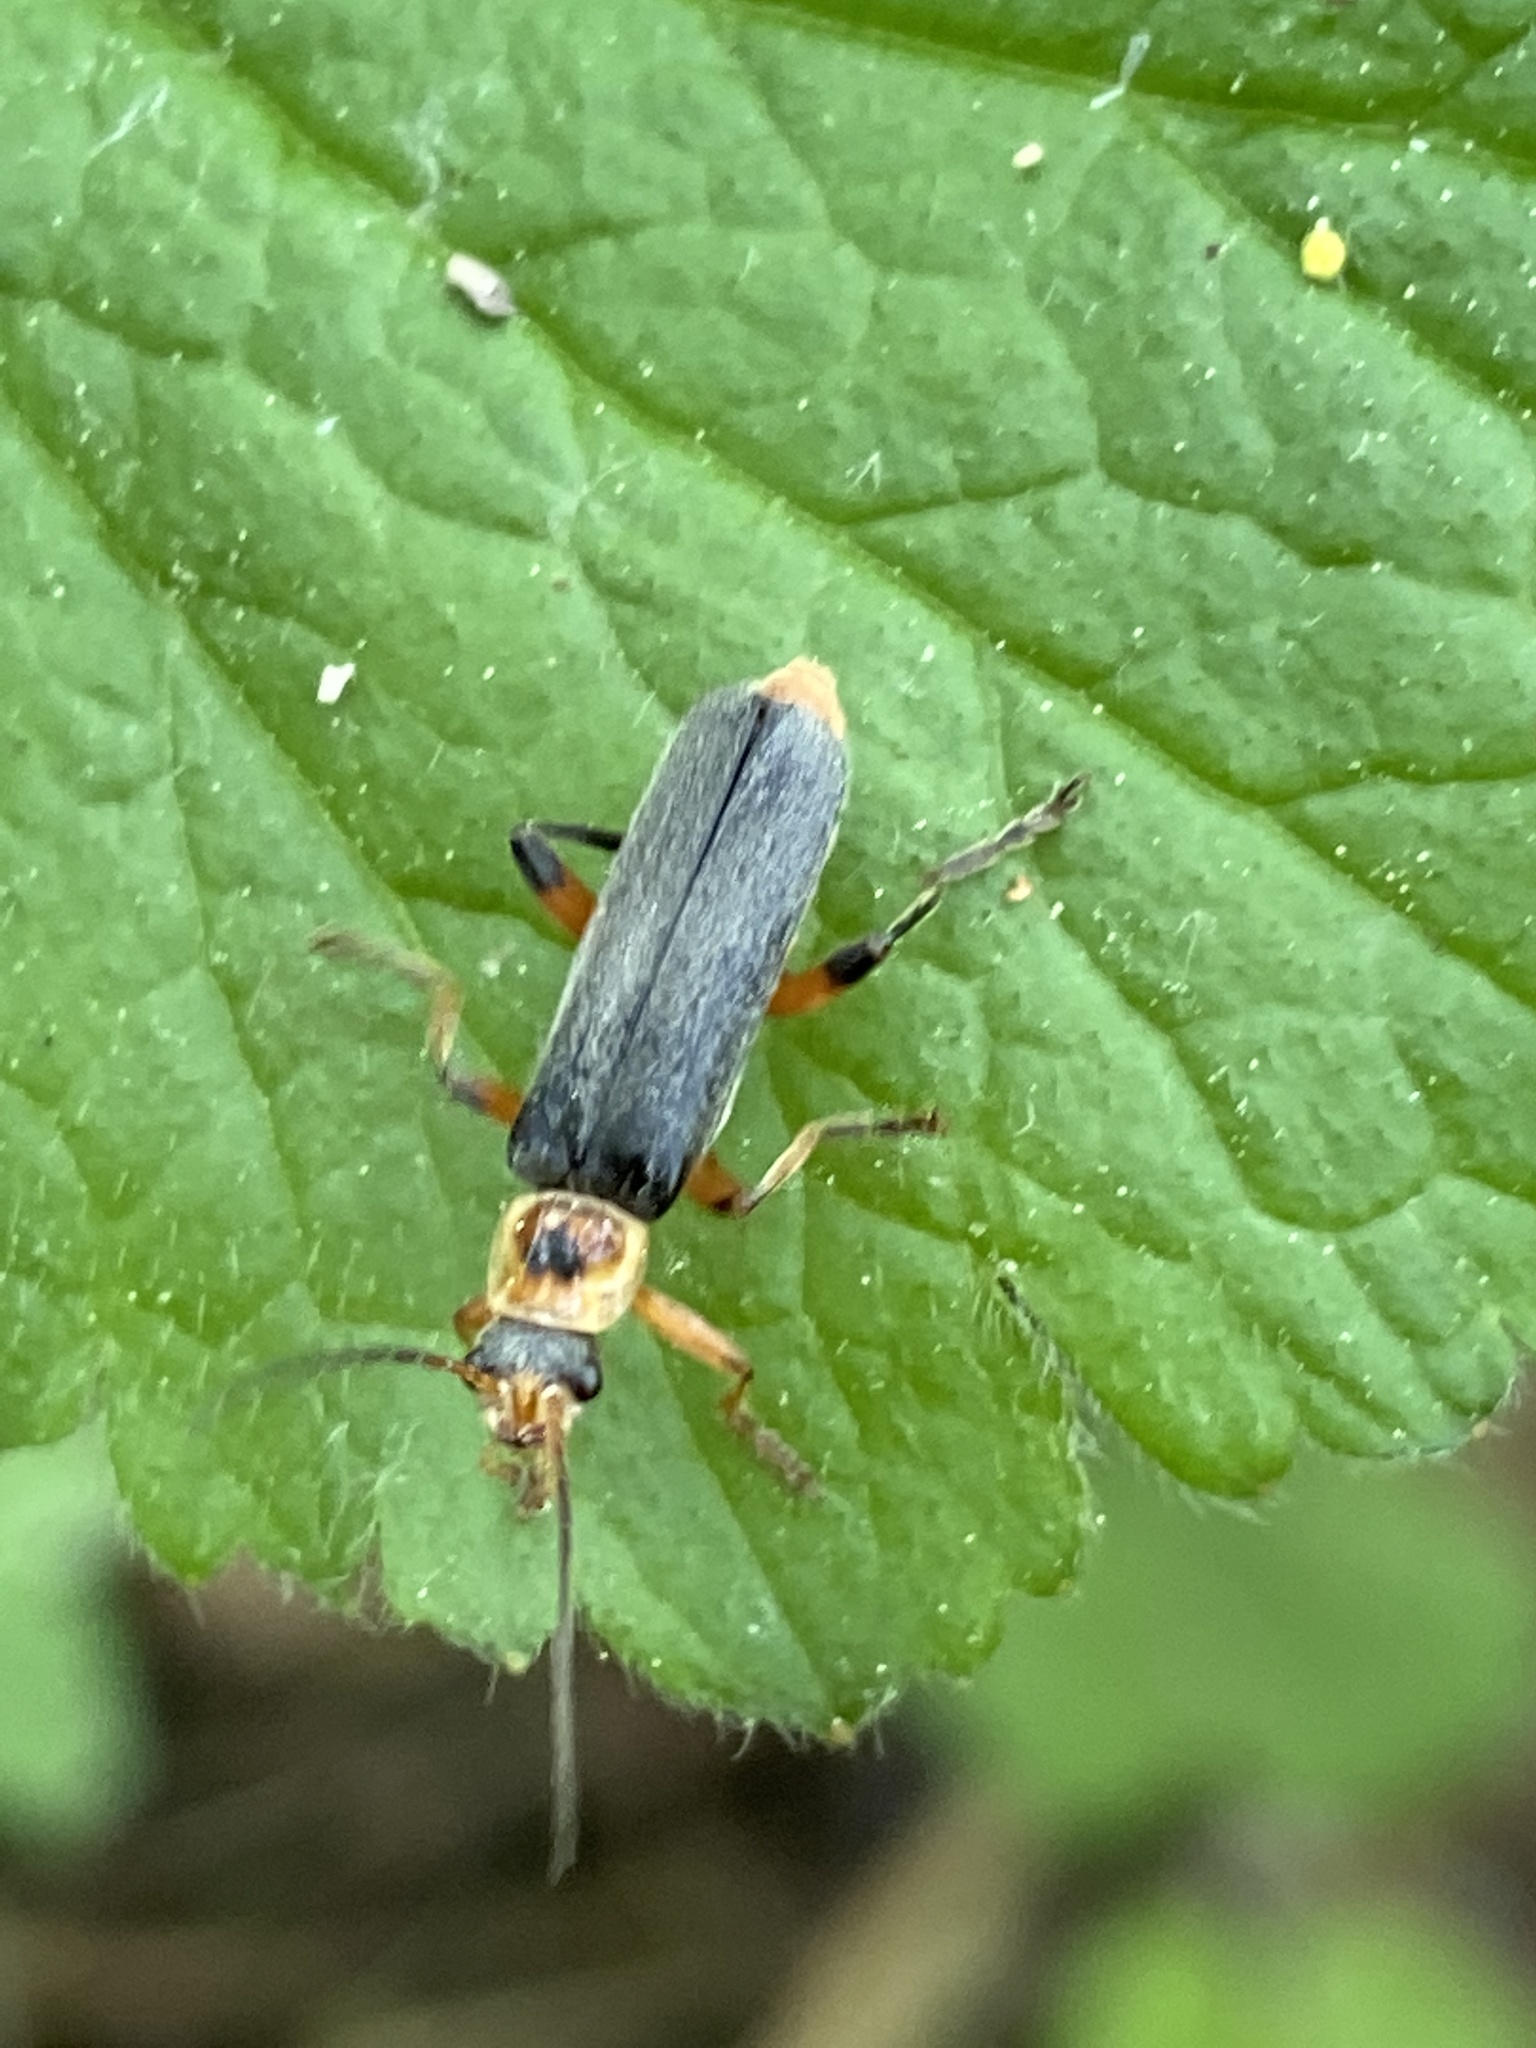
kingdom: Animalia
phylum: Arthropoda
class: Insecta
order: Coleoptera
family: Cantharidae
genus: Cantharis
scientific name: Cantharis nigricans
